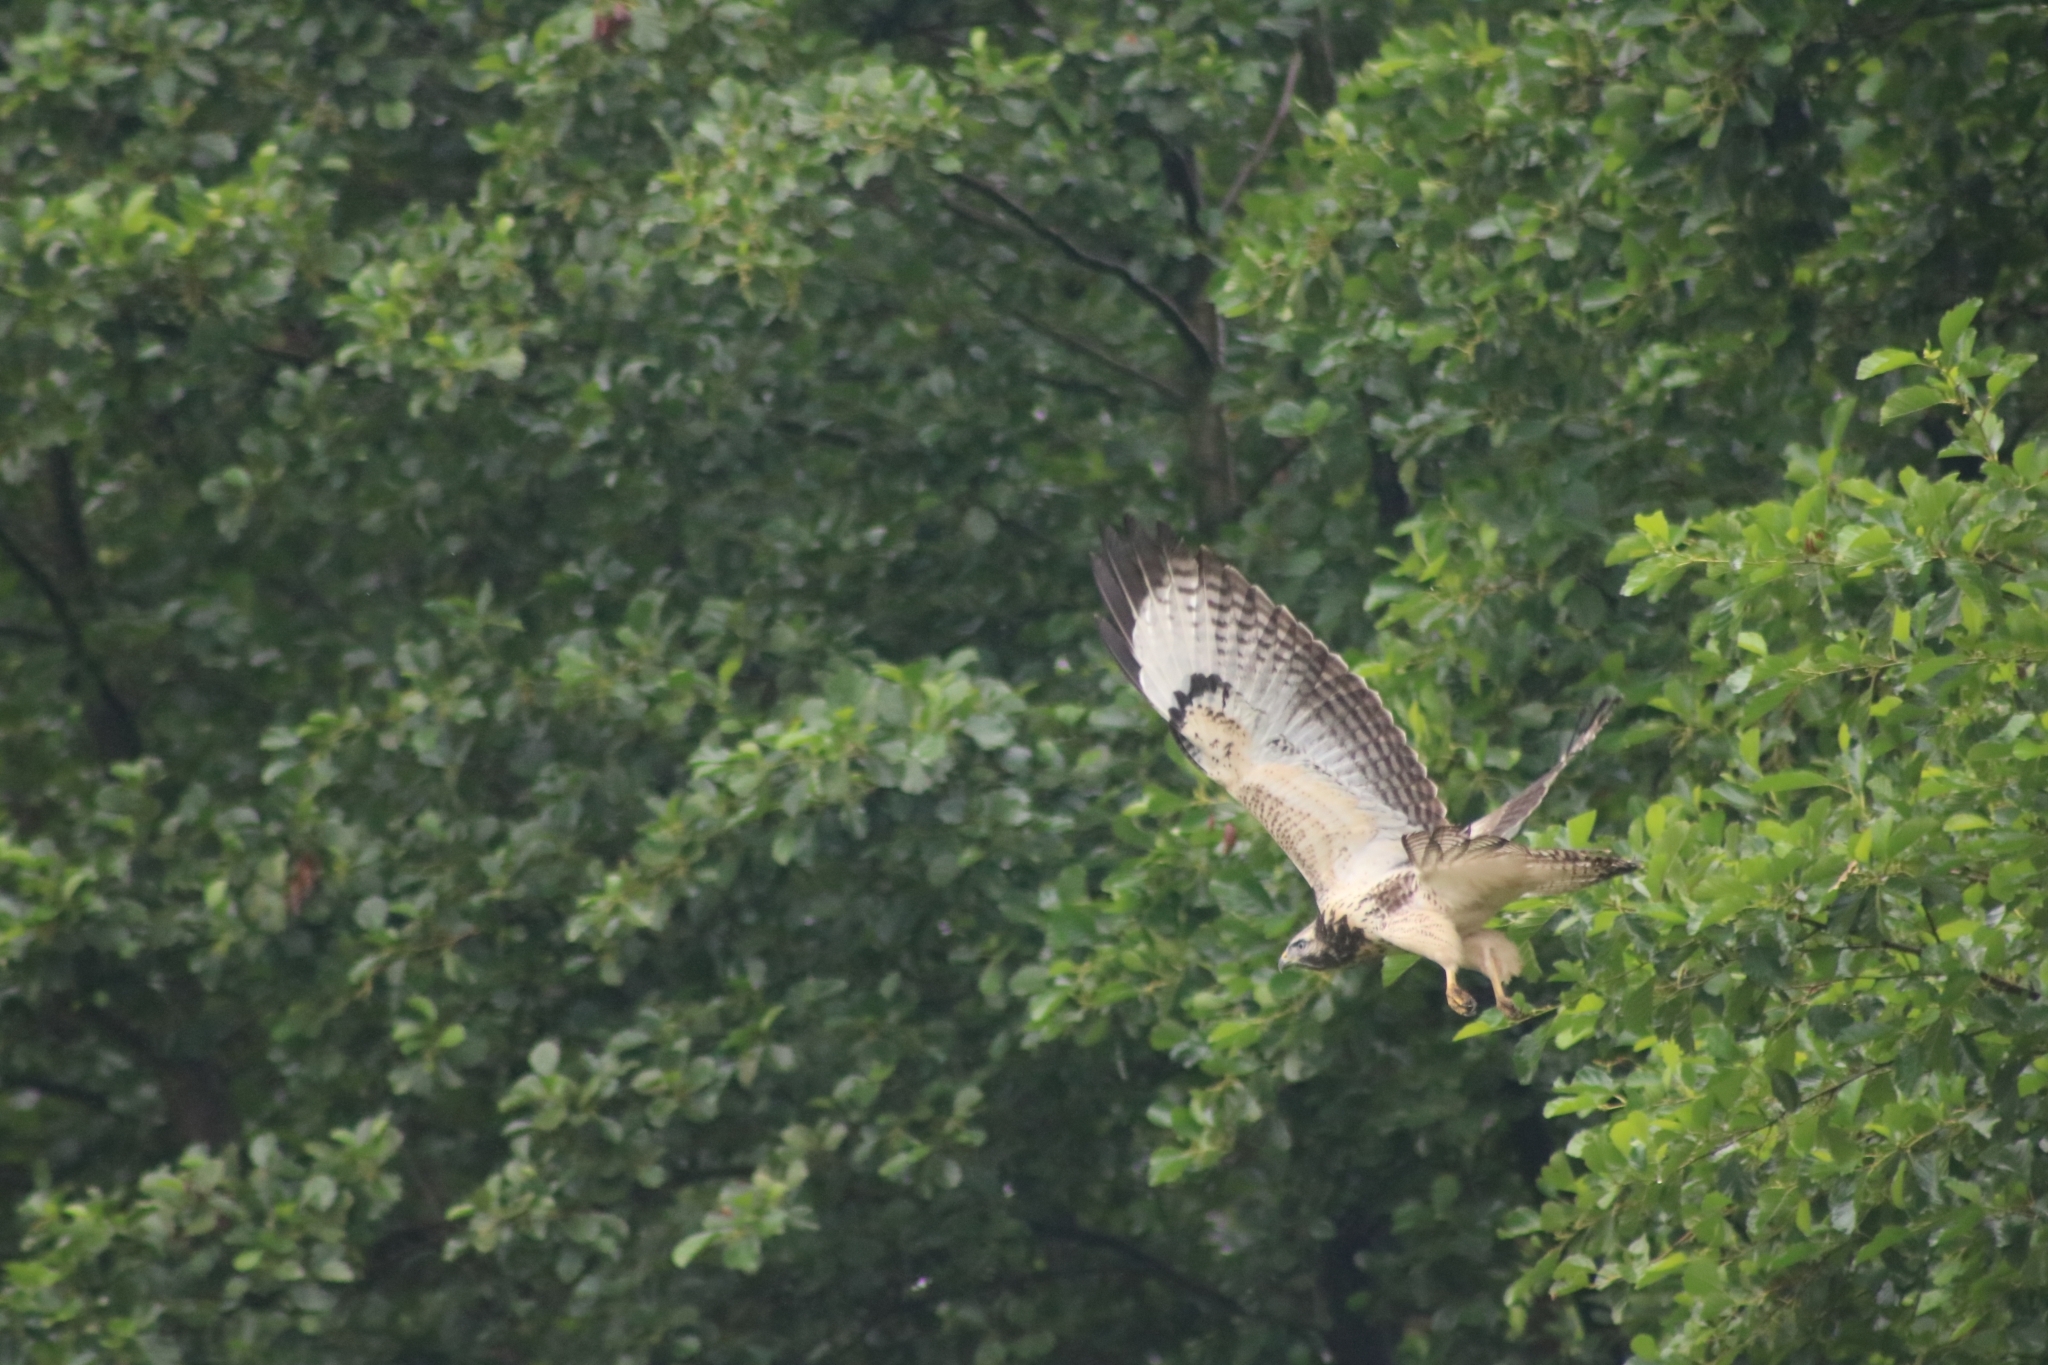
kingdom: Animalia
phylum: Chordata
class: Aves
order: Accipitriformes
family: Accipitridae
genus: Buteo
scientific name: Buteo buteo
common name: Common buzzard
